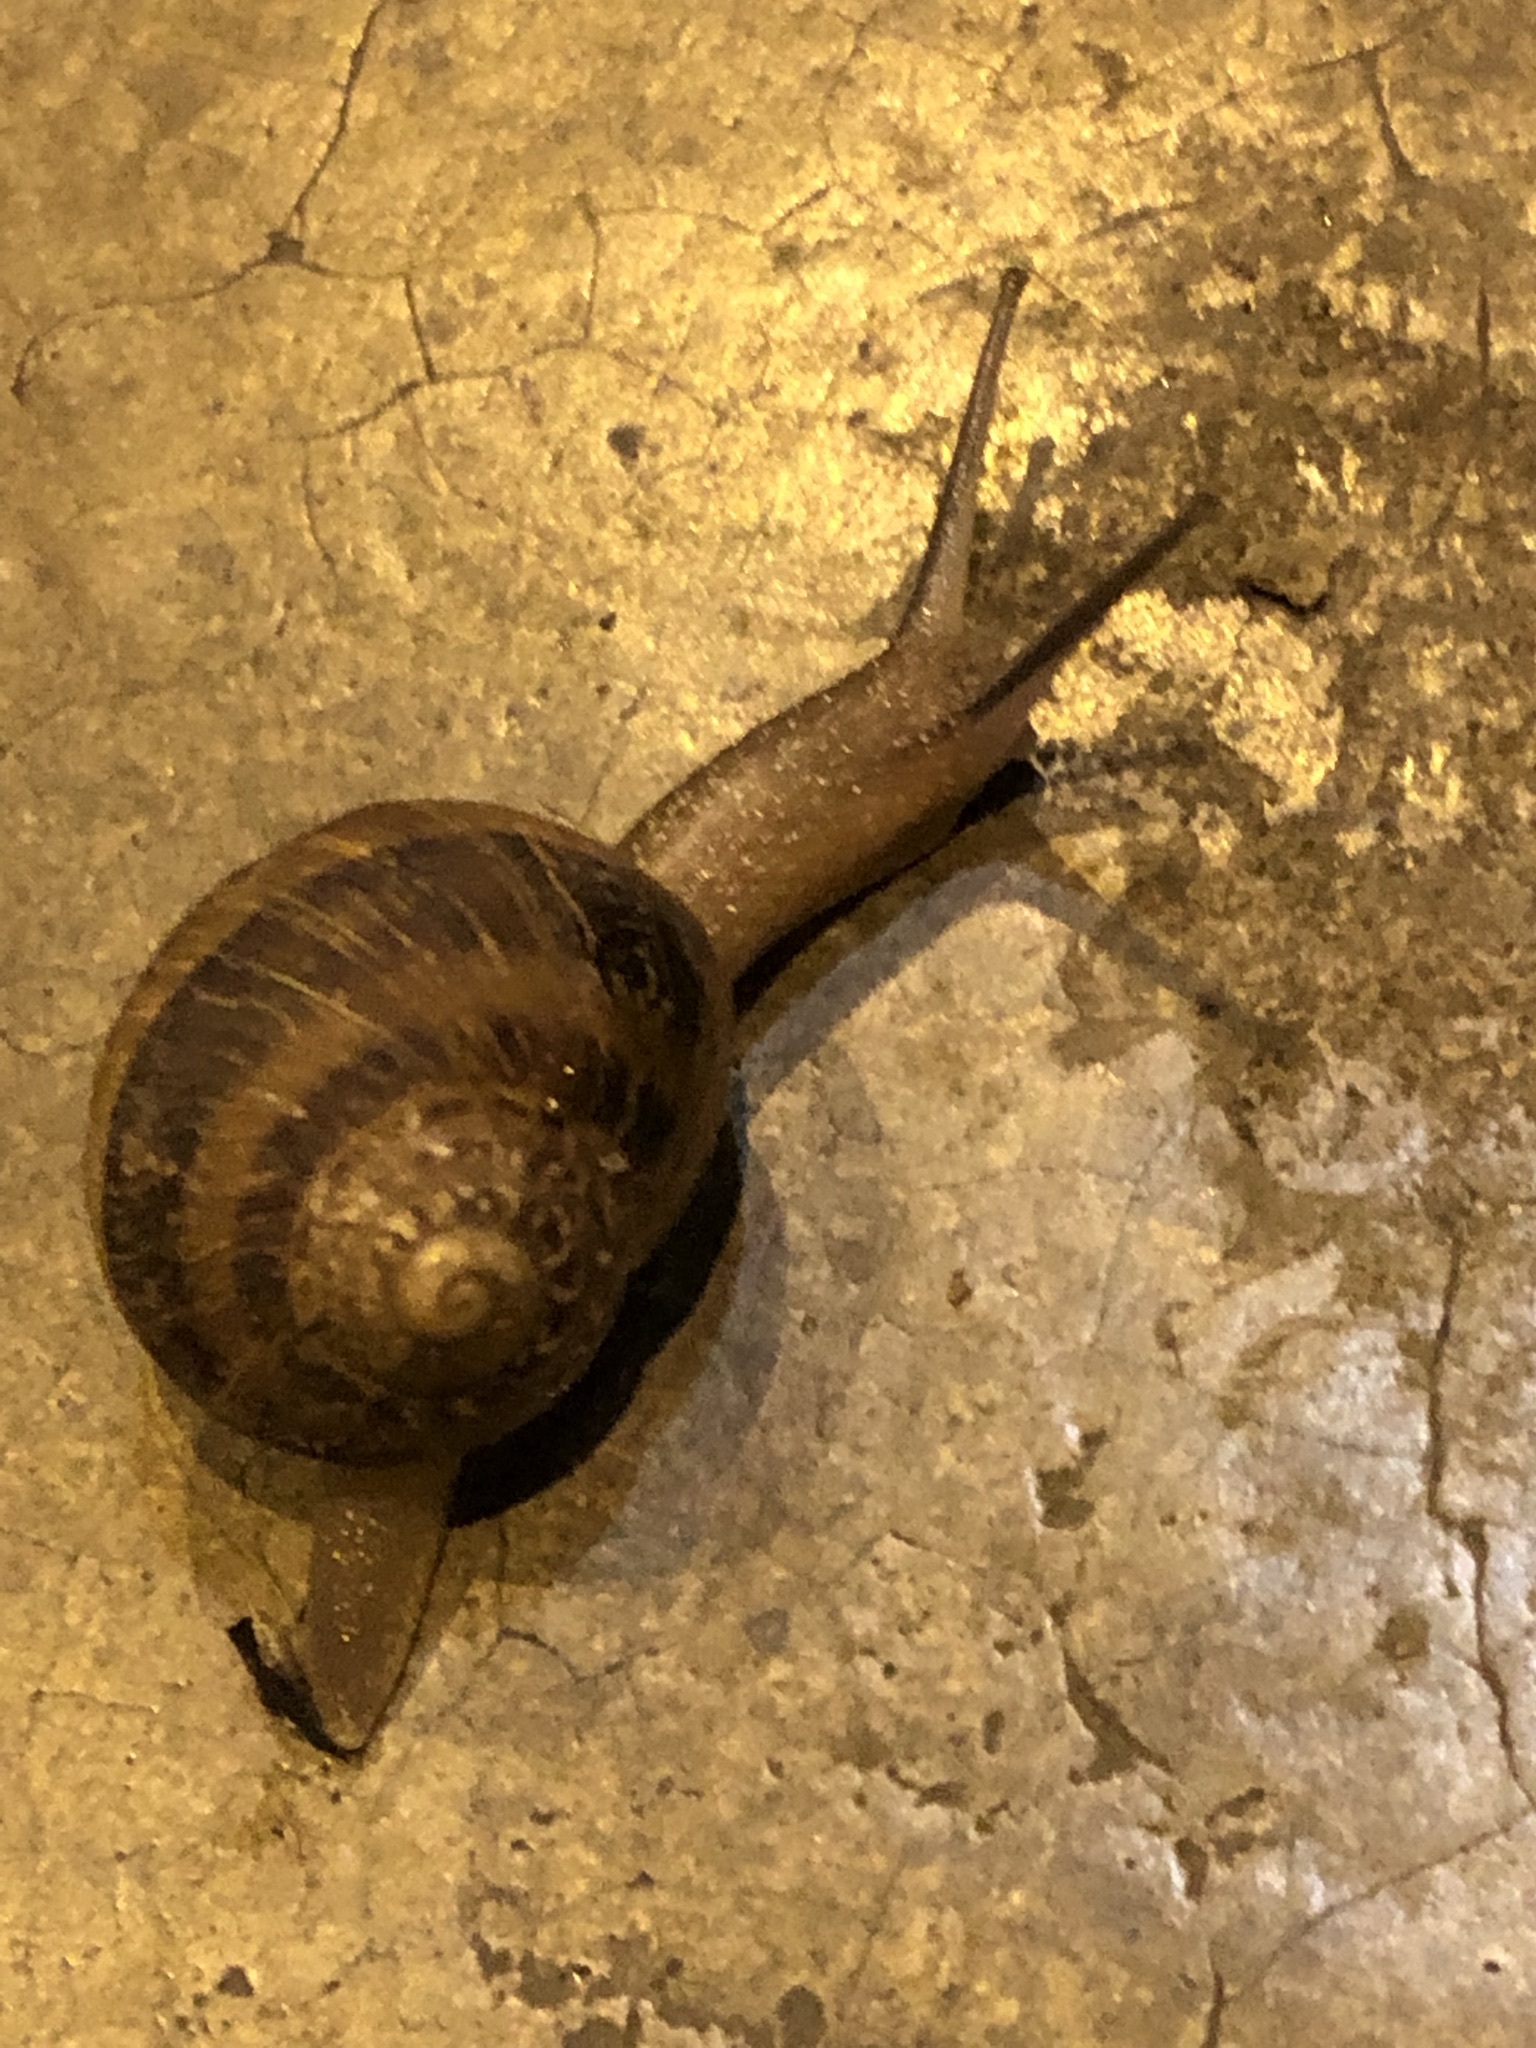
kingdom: Animalia
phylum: Mollusca
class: Gastropoda
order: Stylommatophora
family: Helicidae
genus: Cornu
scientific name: Cornu aspersum
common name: Brown garden snail
